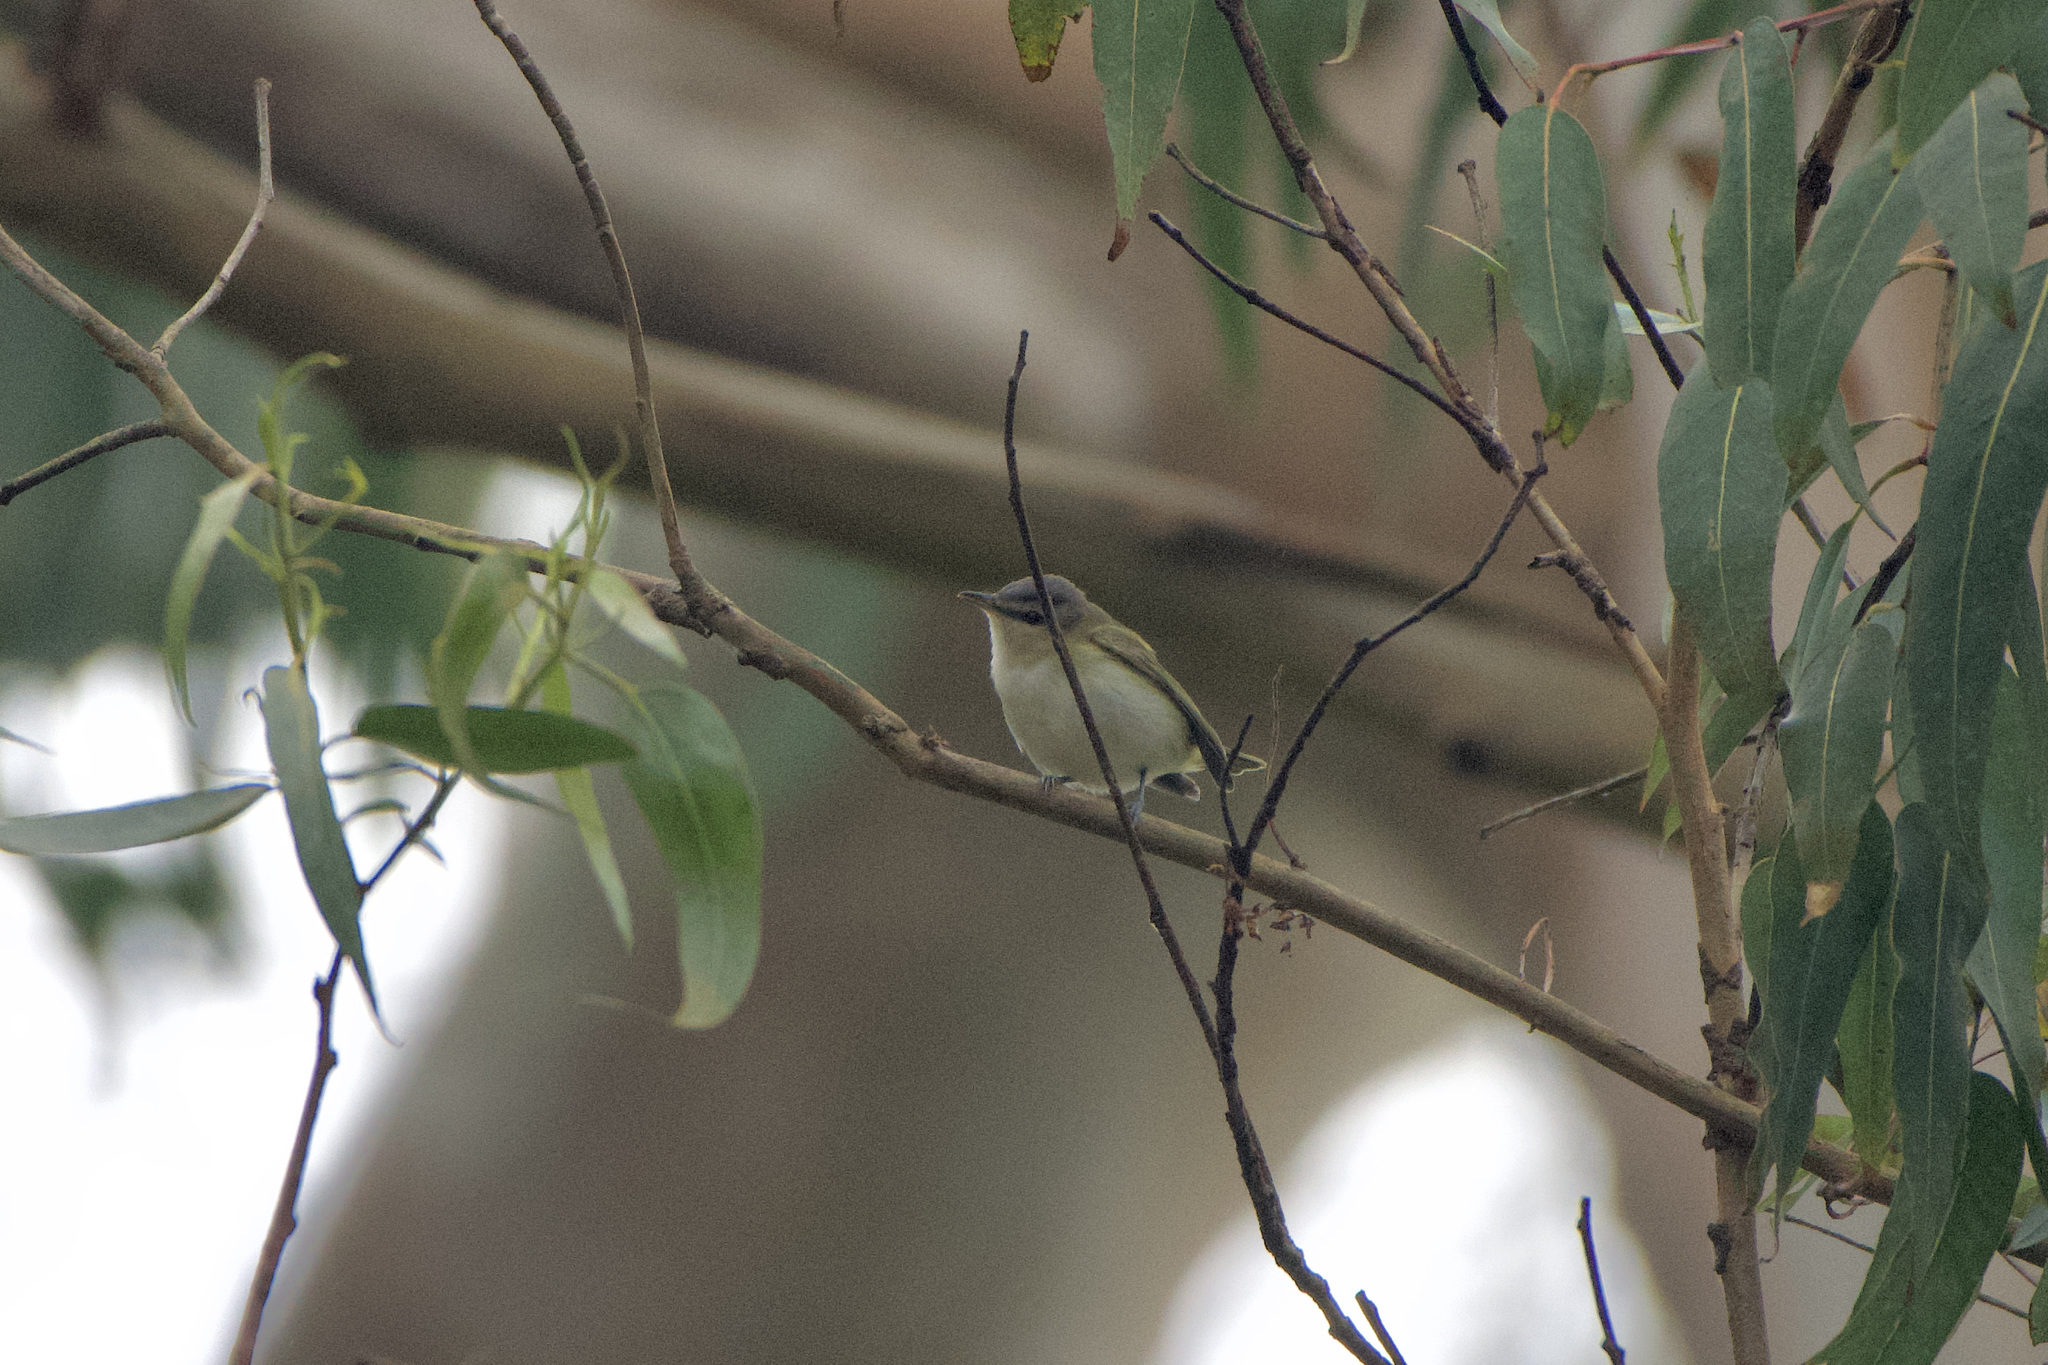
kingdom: Animalia
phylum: Chordata
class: Aves
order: Passeriformes
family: Vireonidae
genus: Vireo
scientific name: Vireo olivaceus
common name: Red-eyed vireo
